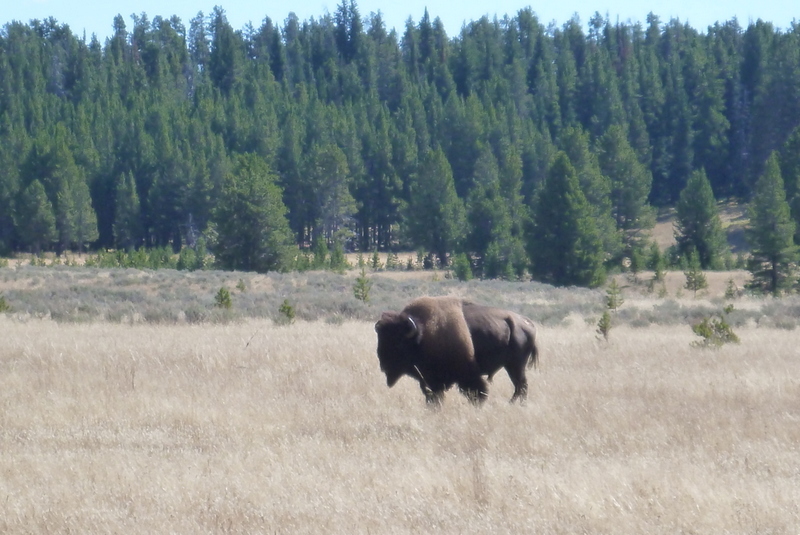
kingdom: Animalia
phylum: Chordata
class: Mammalia
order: Artiodactyla
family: Bovidae
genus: Bison
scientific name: Bison bison
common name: American bison
